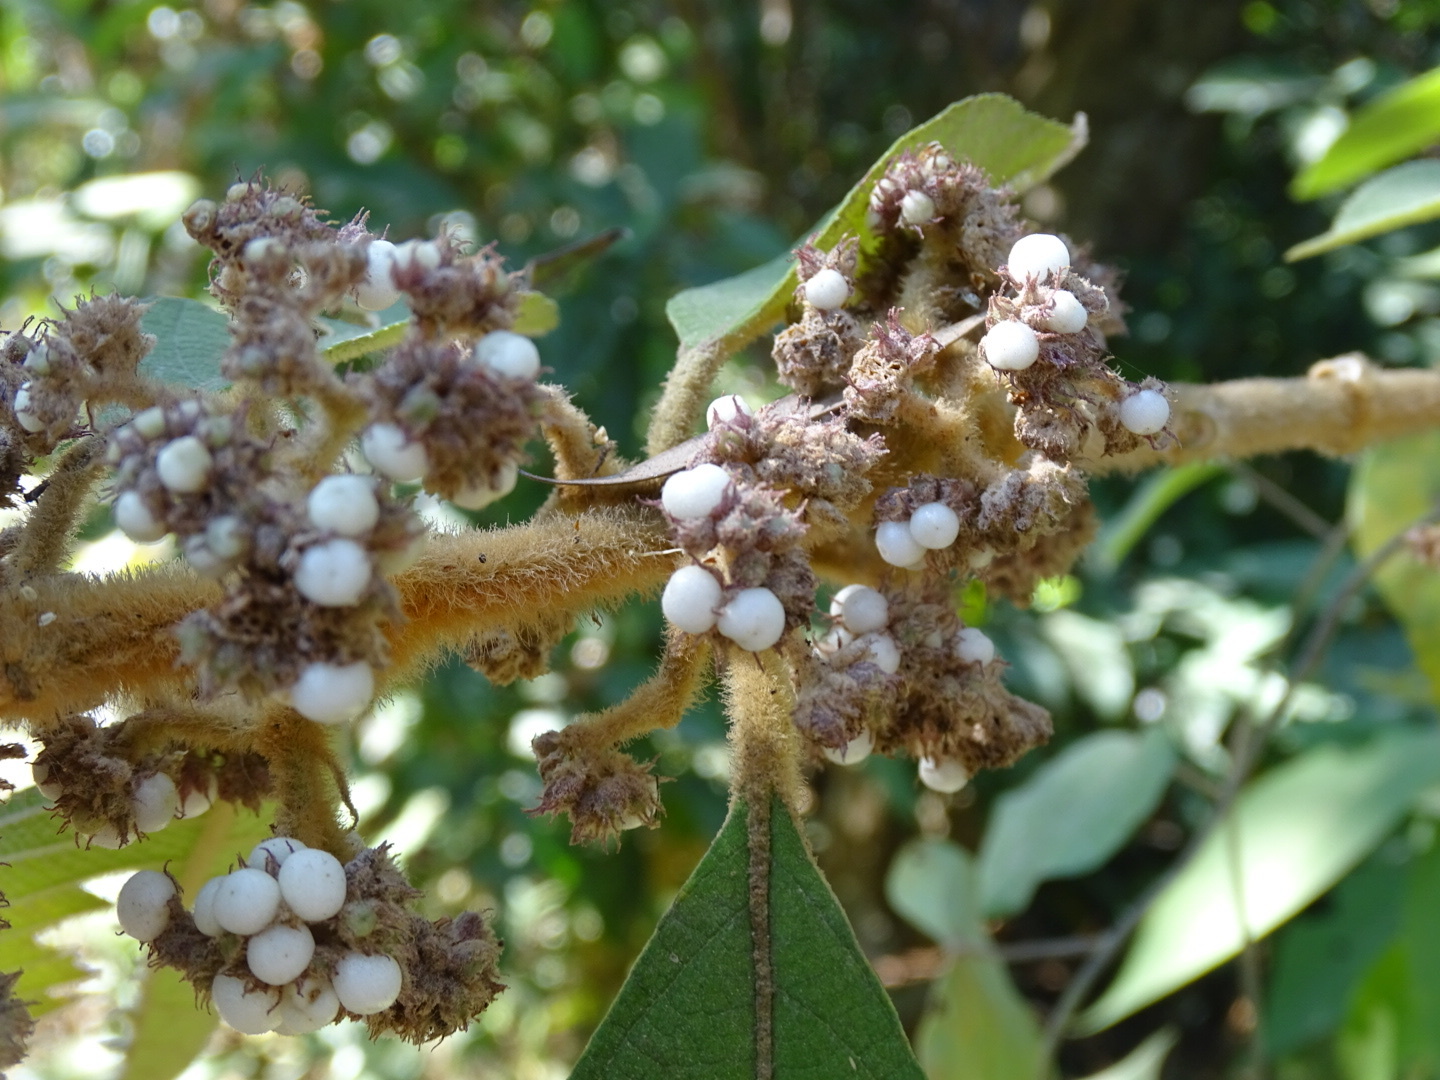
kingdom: Plantae
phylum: Tracheophyta
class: Magnoliopsida
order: Lamiales
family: Lamiaceae
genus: Callicarpa
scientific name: Callicarpa kochiana
